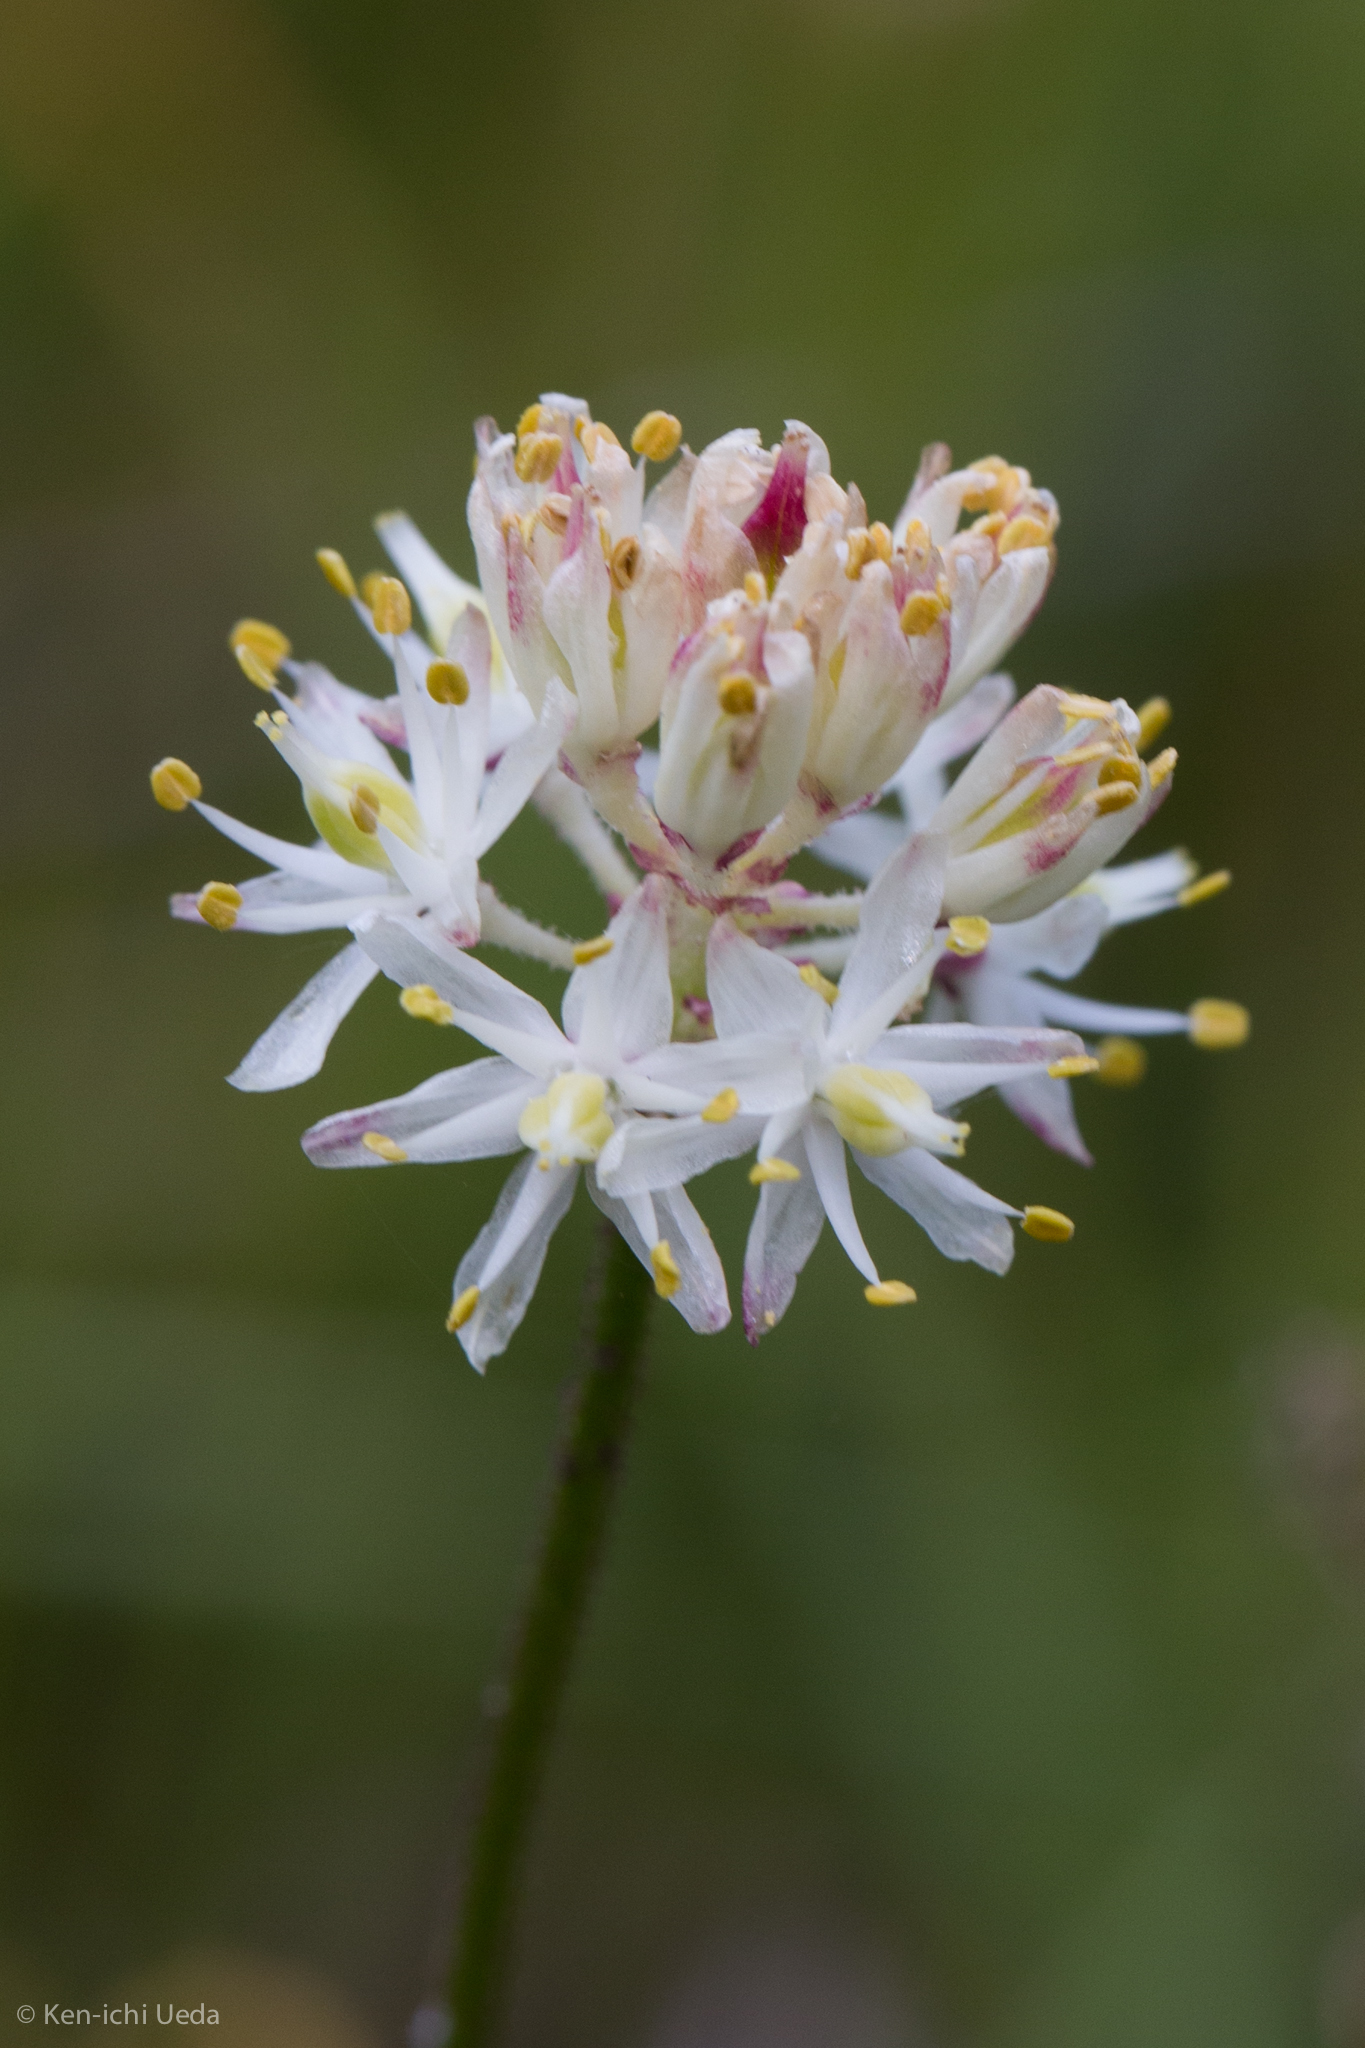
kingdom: Plantae
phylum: Tracheophyta
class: Liliopsida
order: Alismatales
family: Tofieldiaceae
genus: Triantha
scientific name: Triantha occidentalis
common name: Western false asphodel
